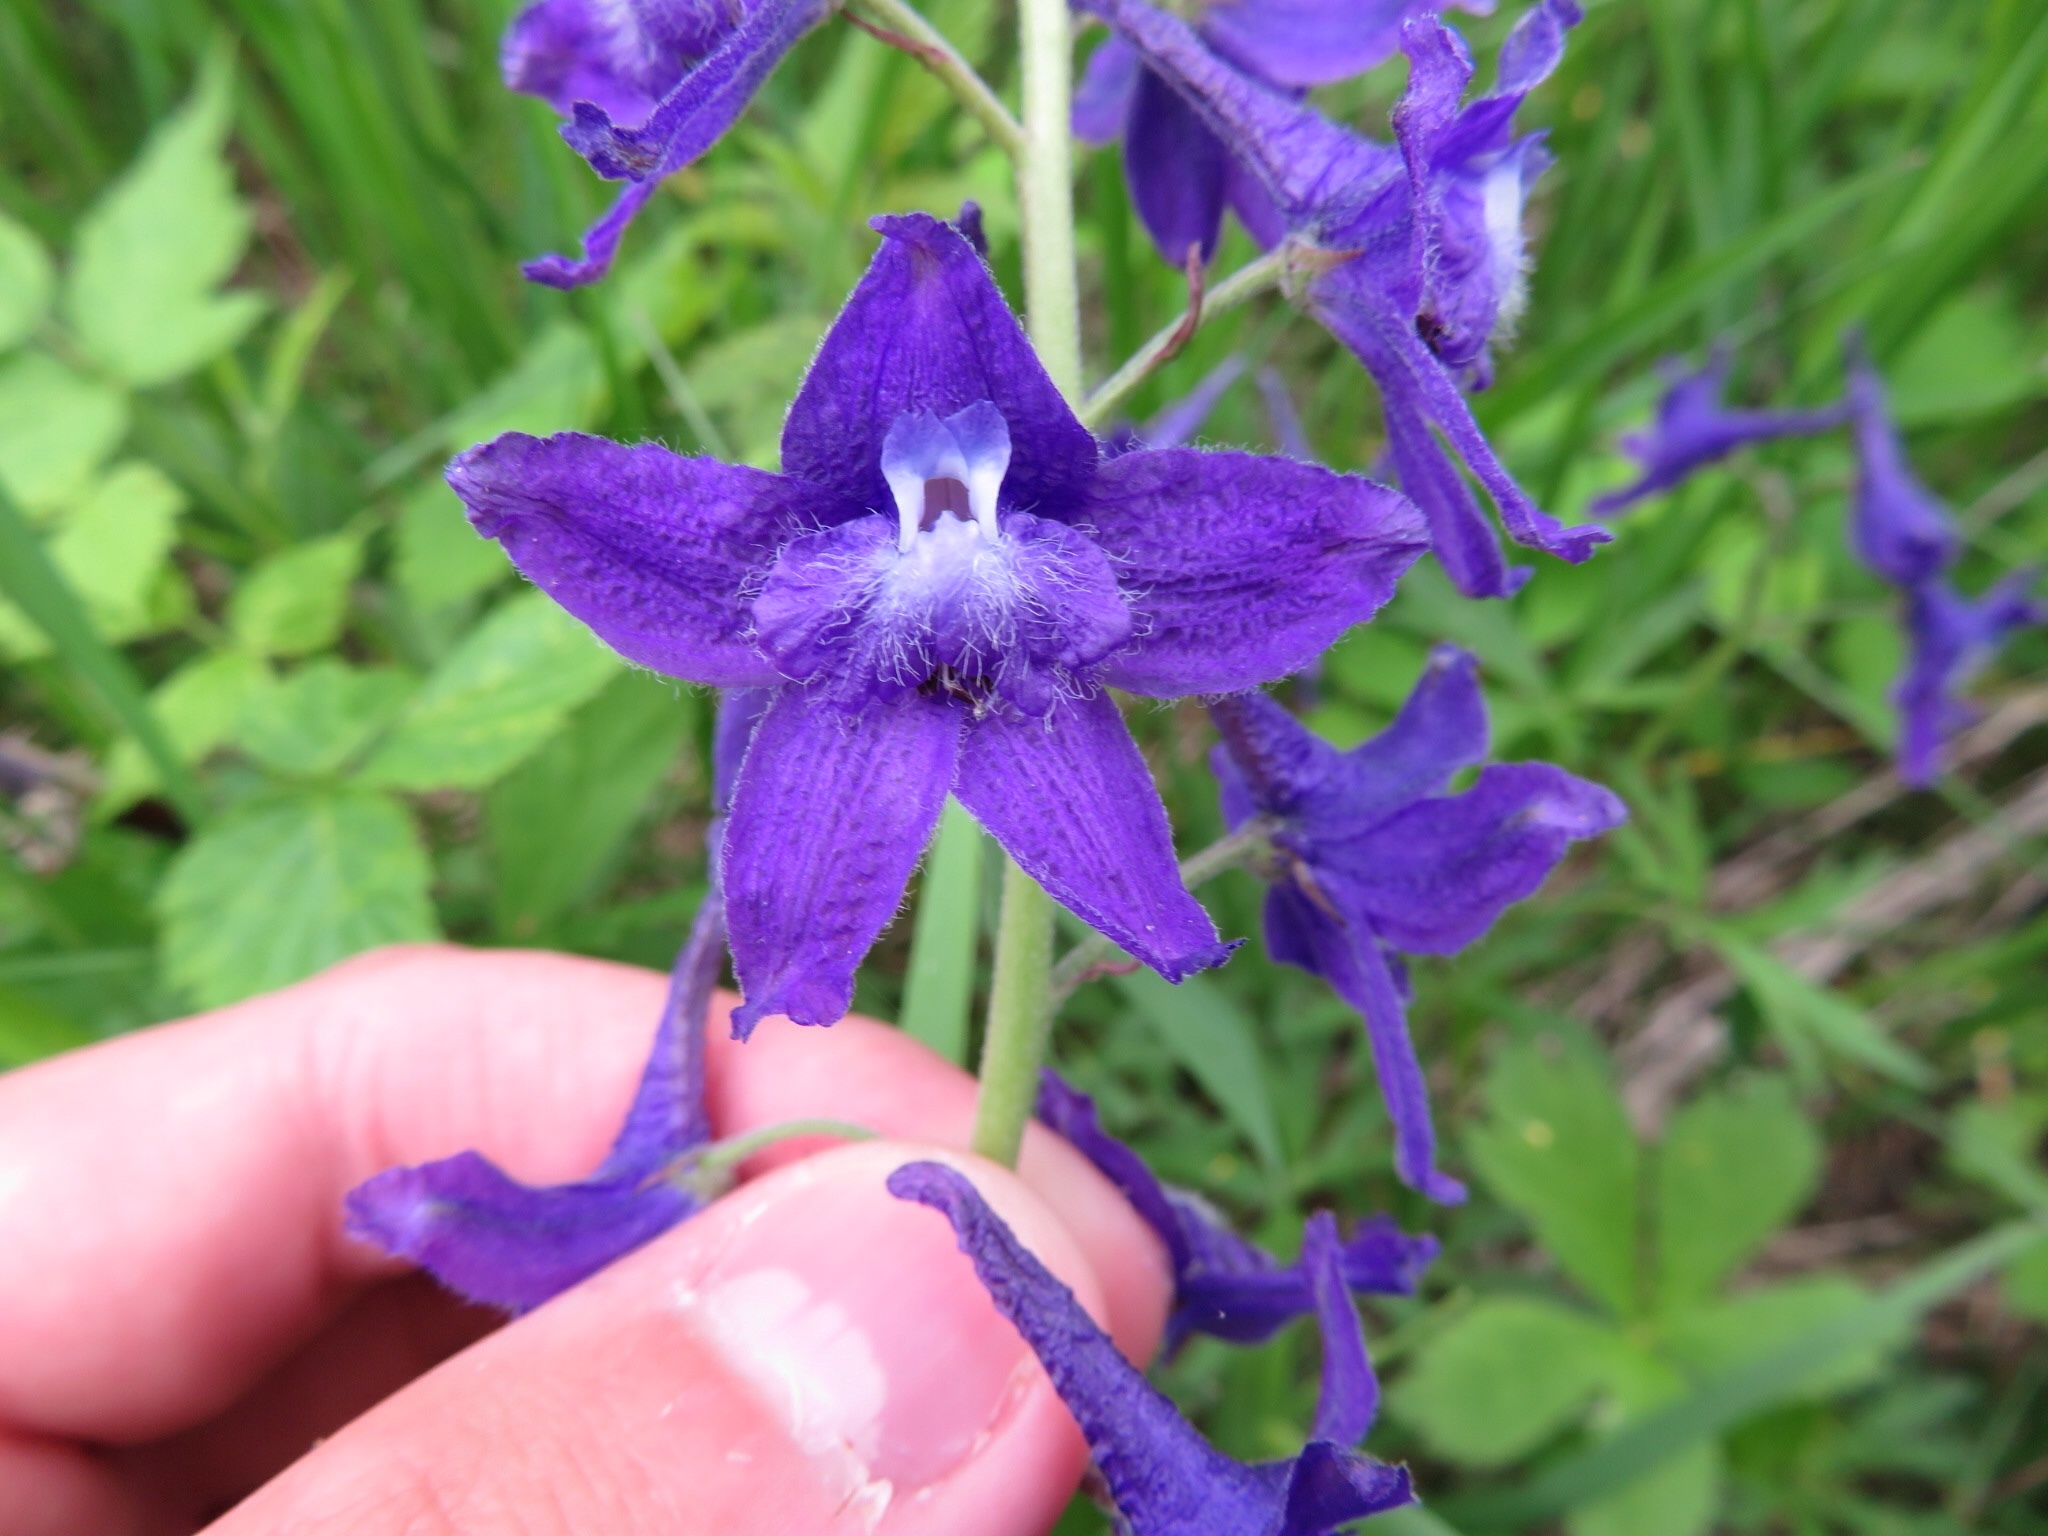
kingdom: Plantae
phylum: Tracheophyta
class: Magnoliopsida
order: Ranunculales
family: Ranunculaceae
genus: Delphinium
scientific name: Delphinium tricorne
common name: Dwarf larkspur
